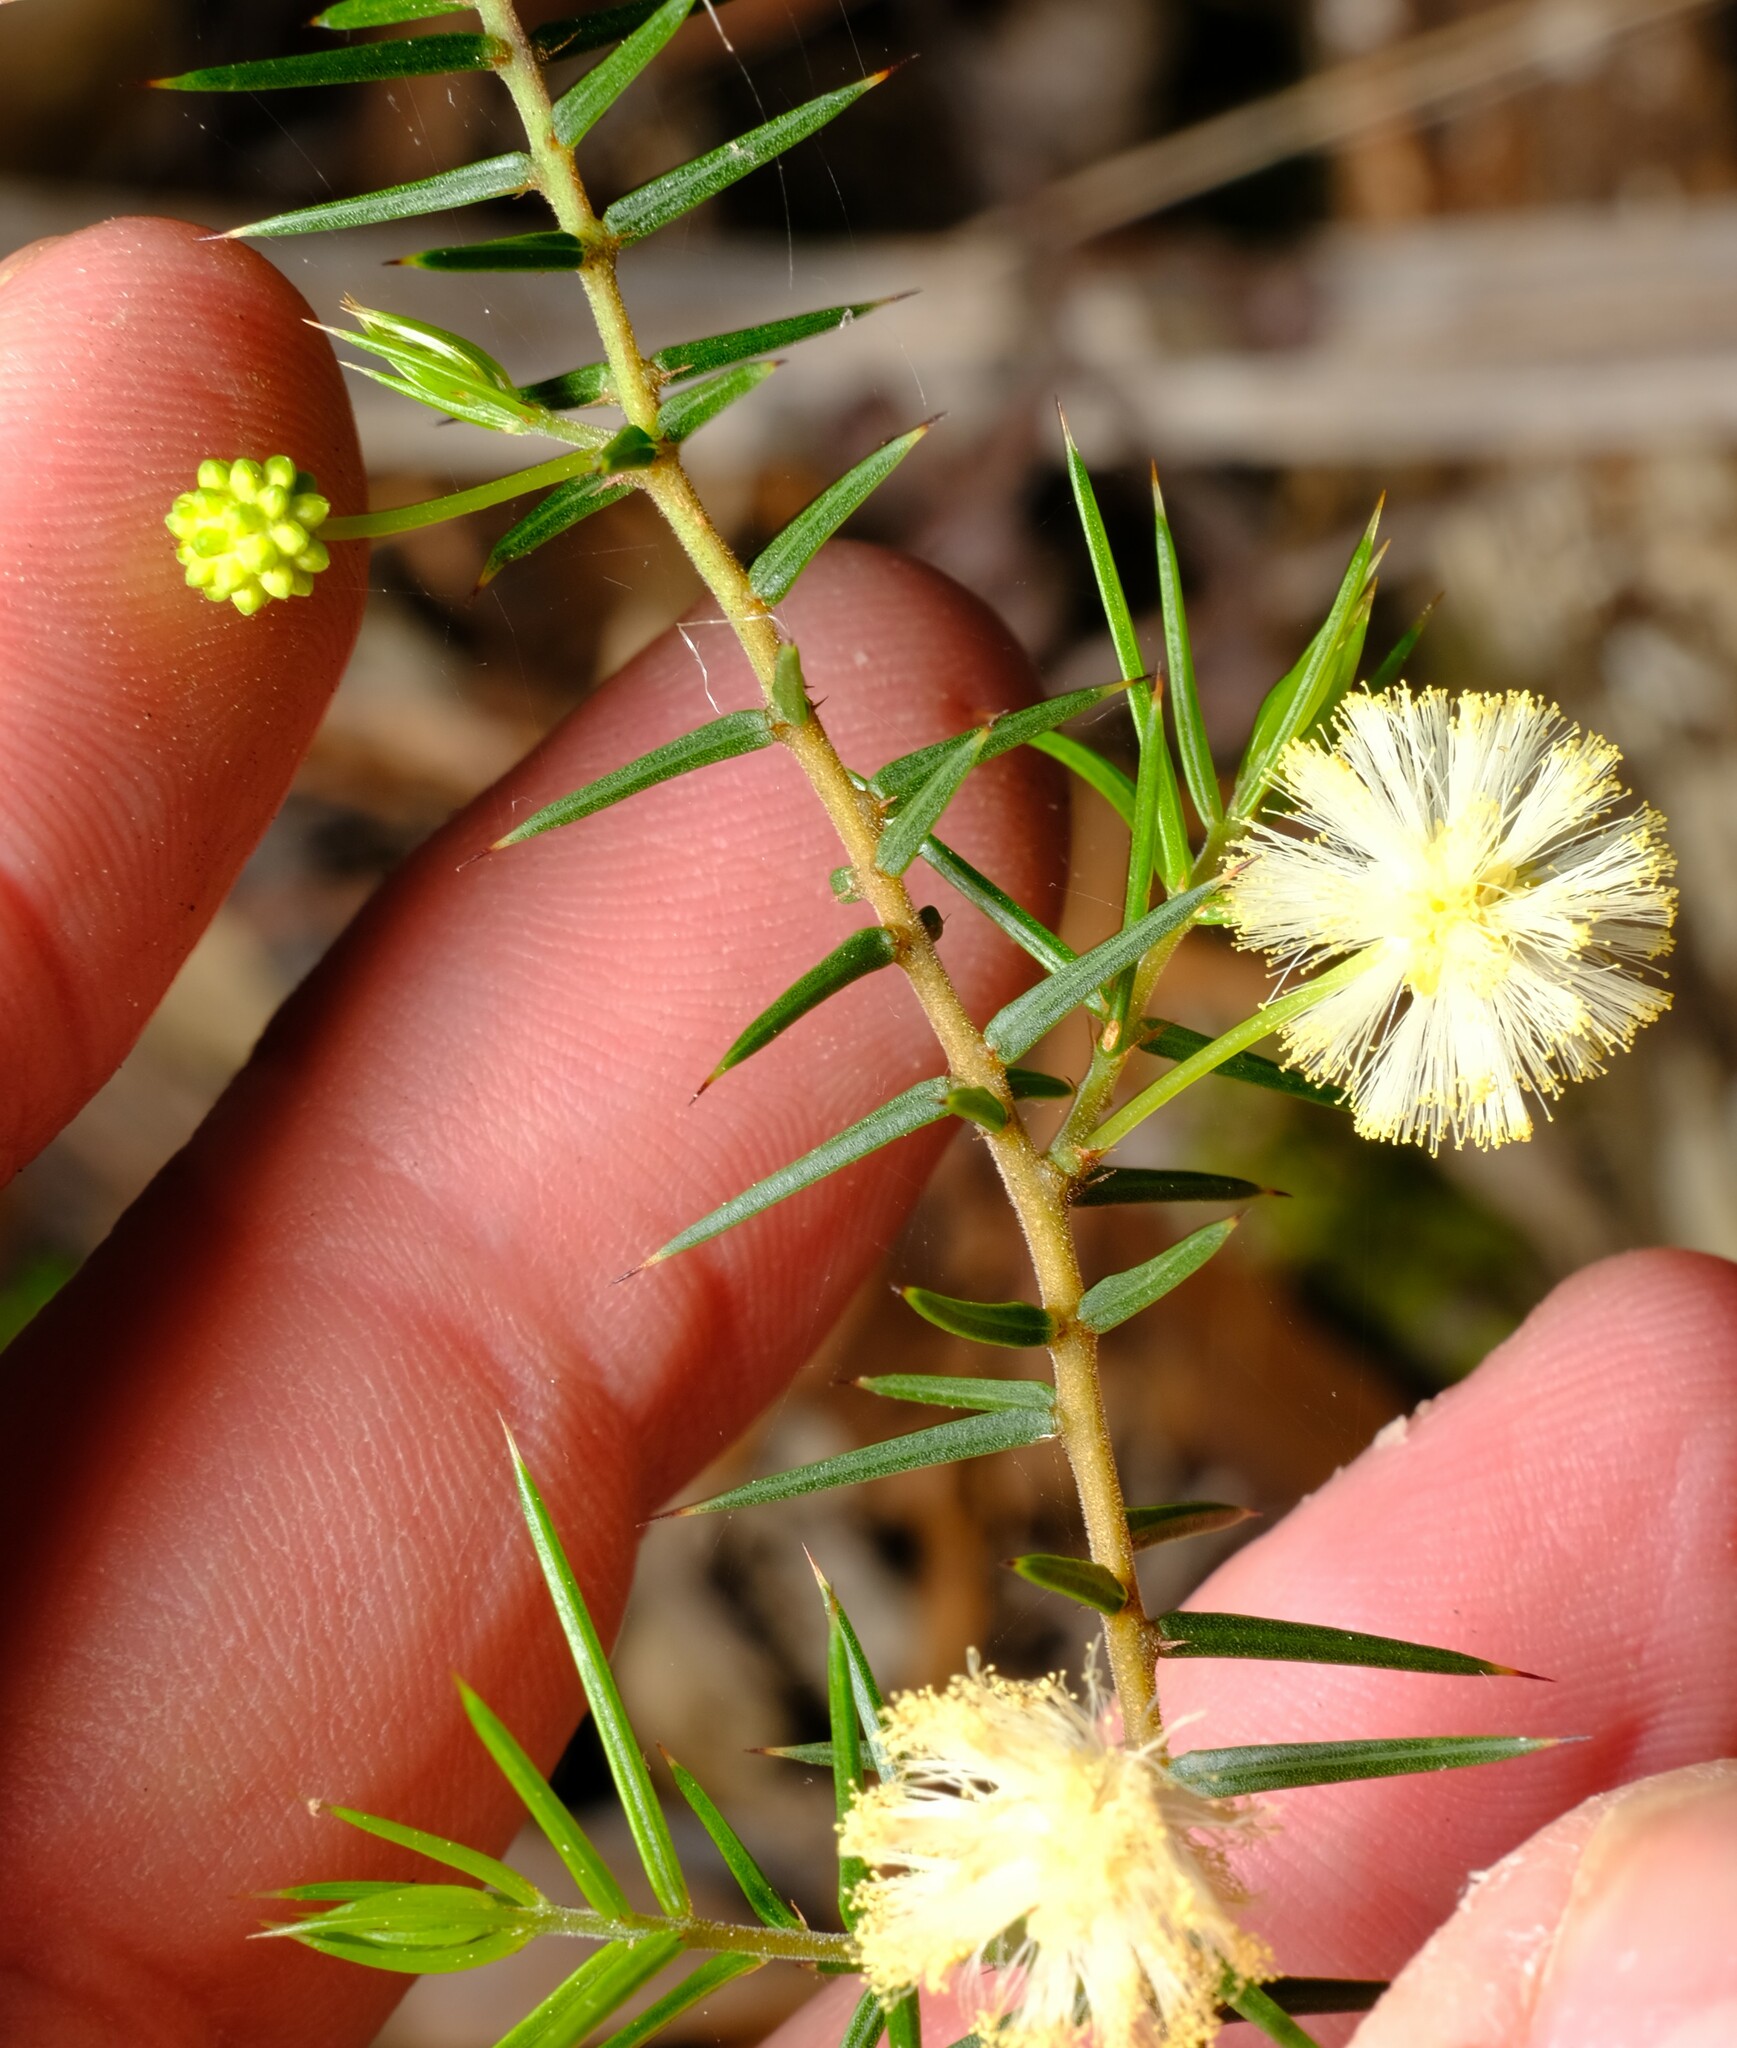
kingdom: Plantae
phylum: Tracheophyta
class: Magnoliopsida
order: Fabales
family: Fabaceae
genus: Acacia
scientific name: Acacia ulicifolia
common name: Juniper wattle
